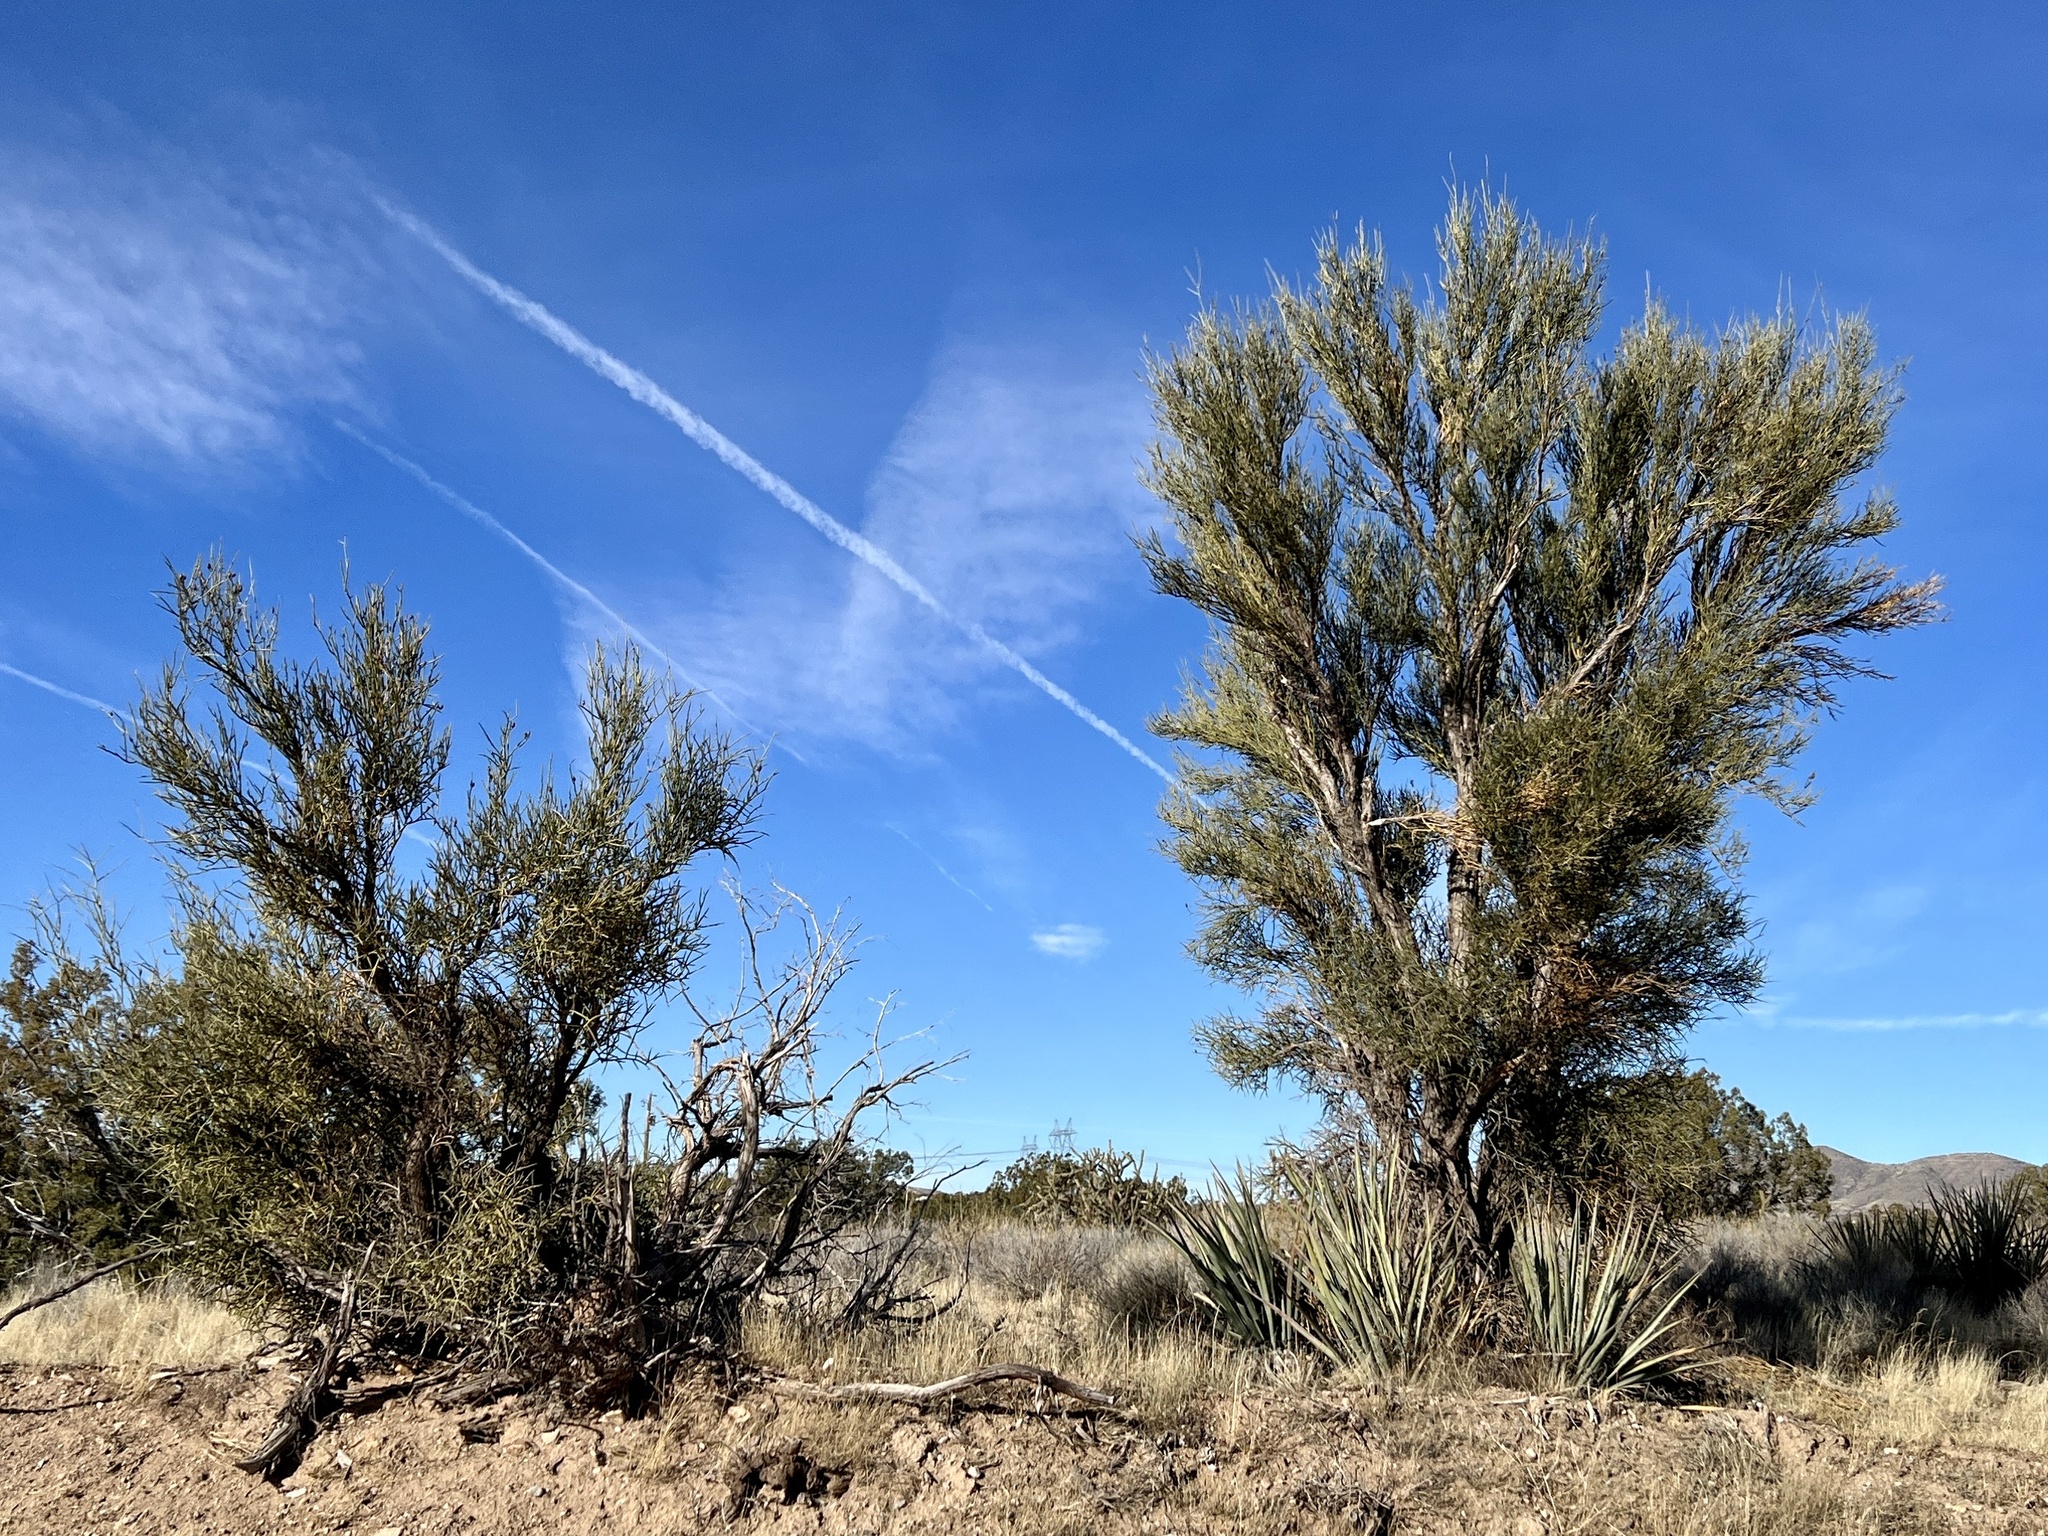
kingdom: Plantae
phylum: Tracheophyta
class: Magnoliopsida
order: Celastrales
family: Celastraceae
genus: Canotia
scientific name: Canotia holacantha
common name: Crucifixion thorns
